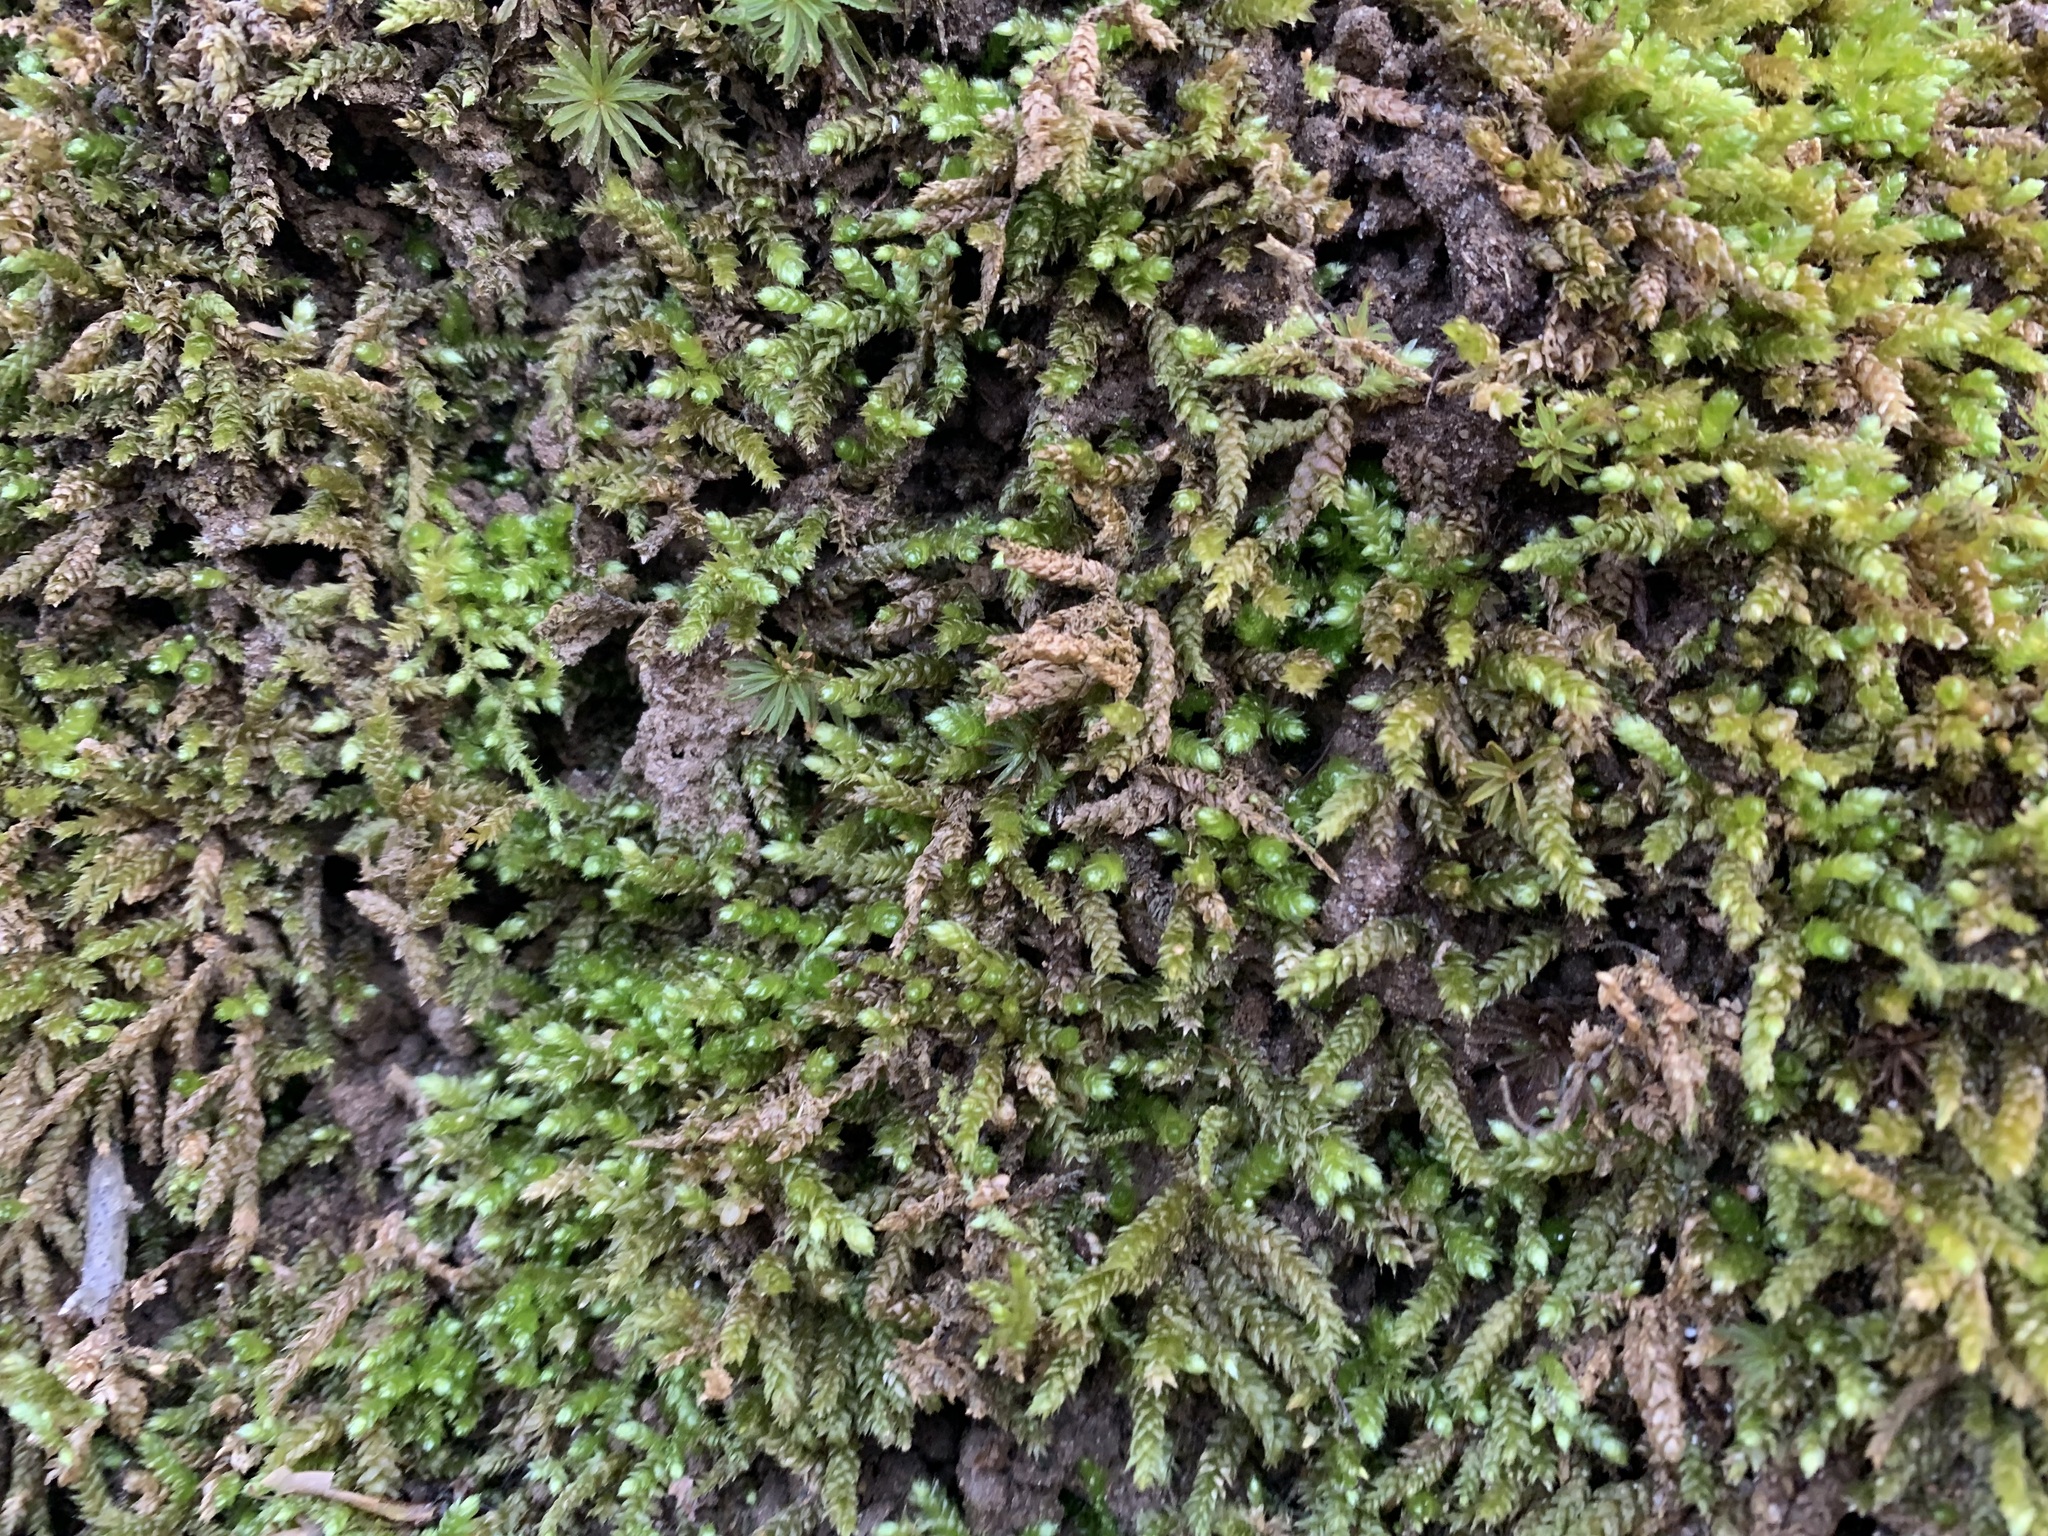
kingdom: Plantae
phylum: Bryophyta
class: Bryopsida
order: Hypnales
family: Brachytheciaceae
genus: Bryoandersonia
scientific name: Bryoandersonia illecebra
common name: Spoon-leaved moss
